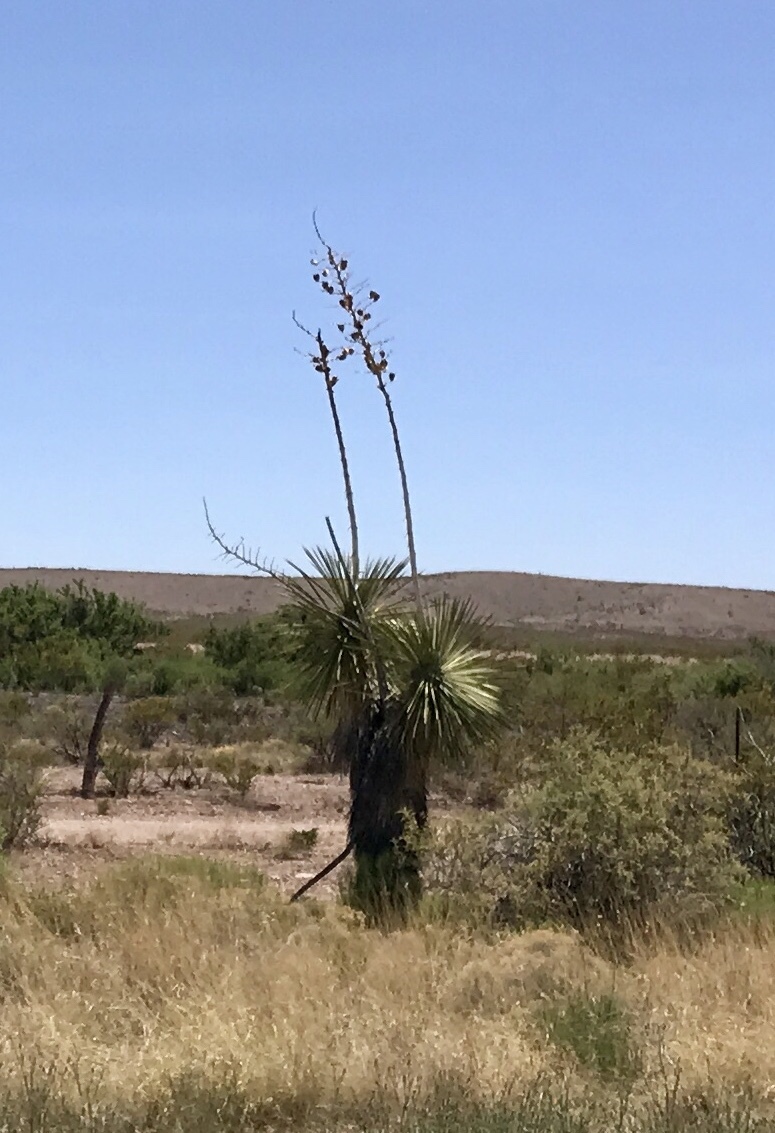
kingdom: Plantae
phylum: Tracheophyta
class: Liliopsida
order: Asparagales
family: Asparagaceae
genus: Yucca
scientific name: Yucca elata
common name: Palmella
